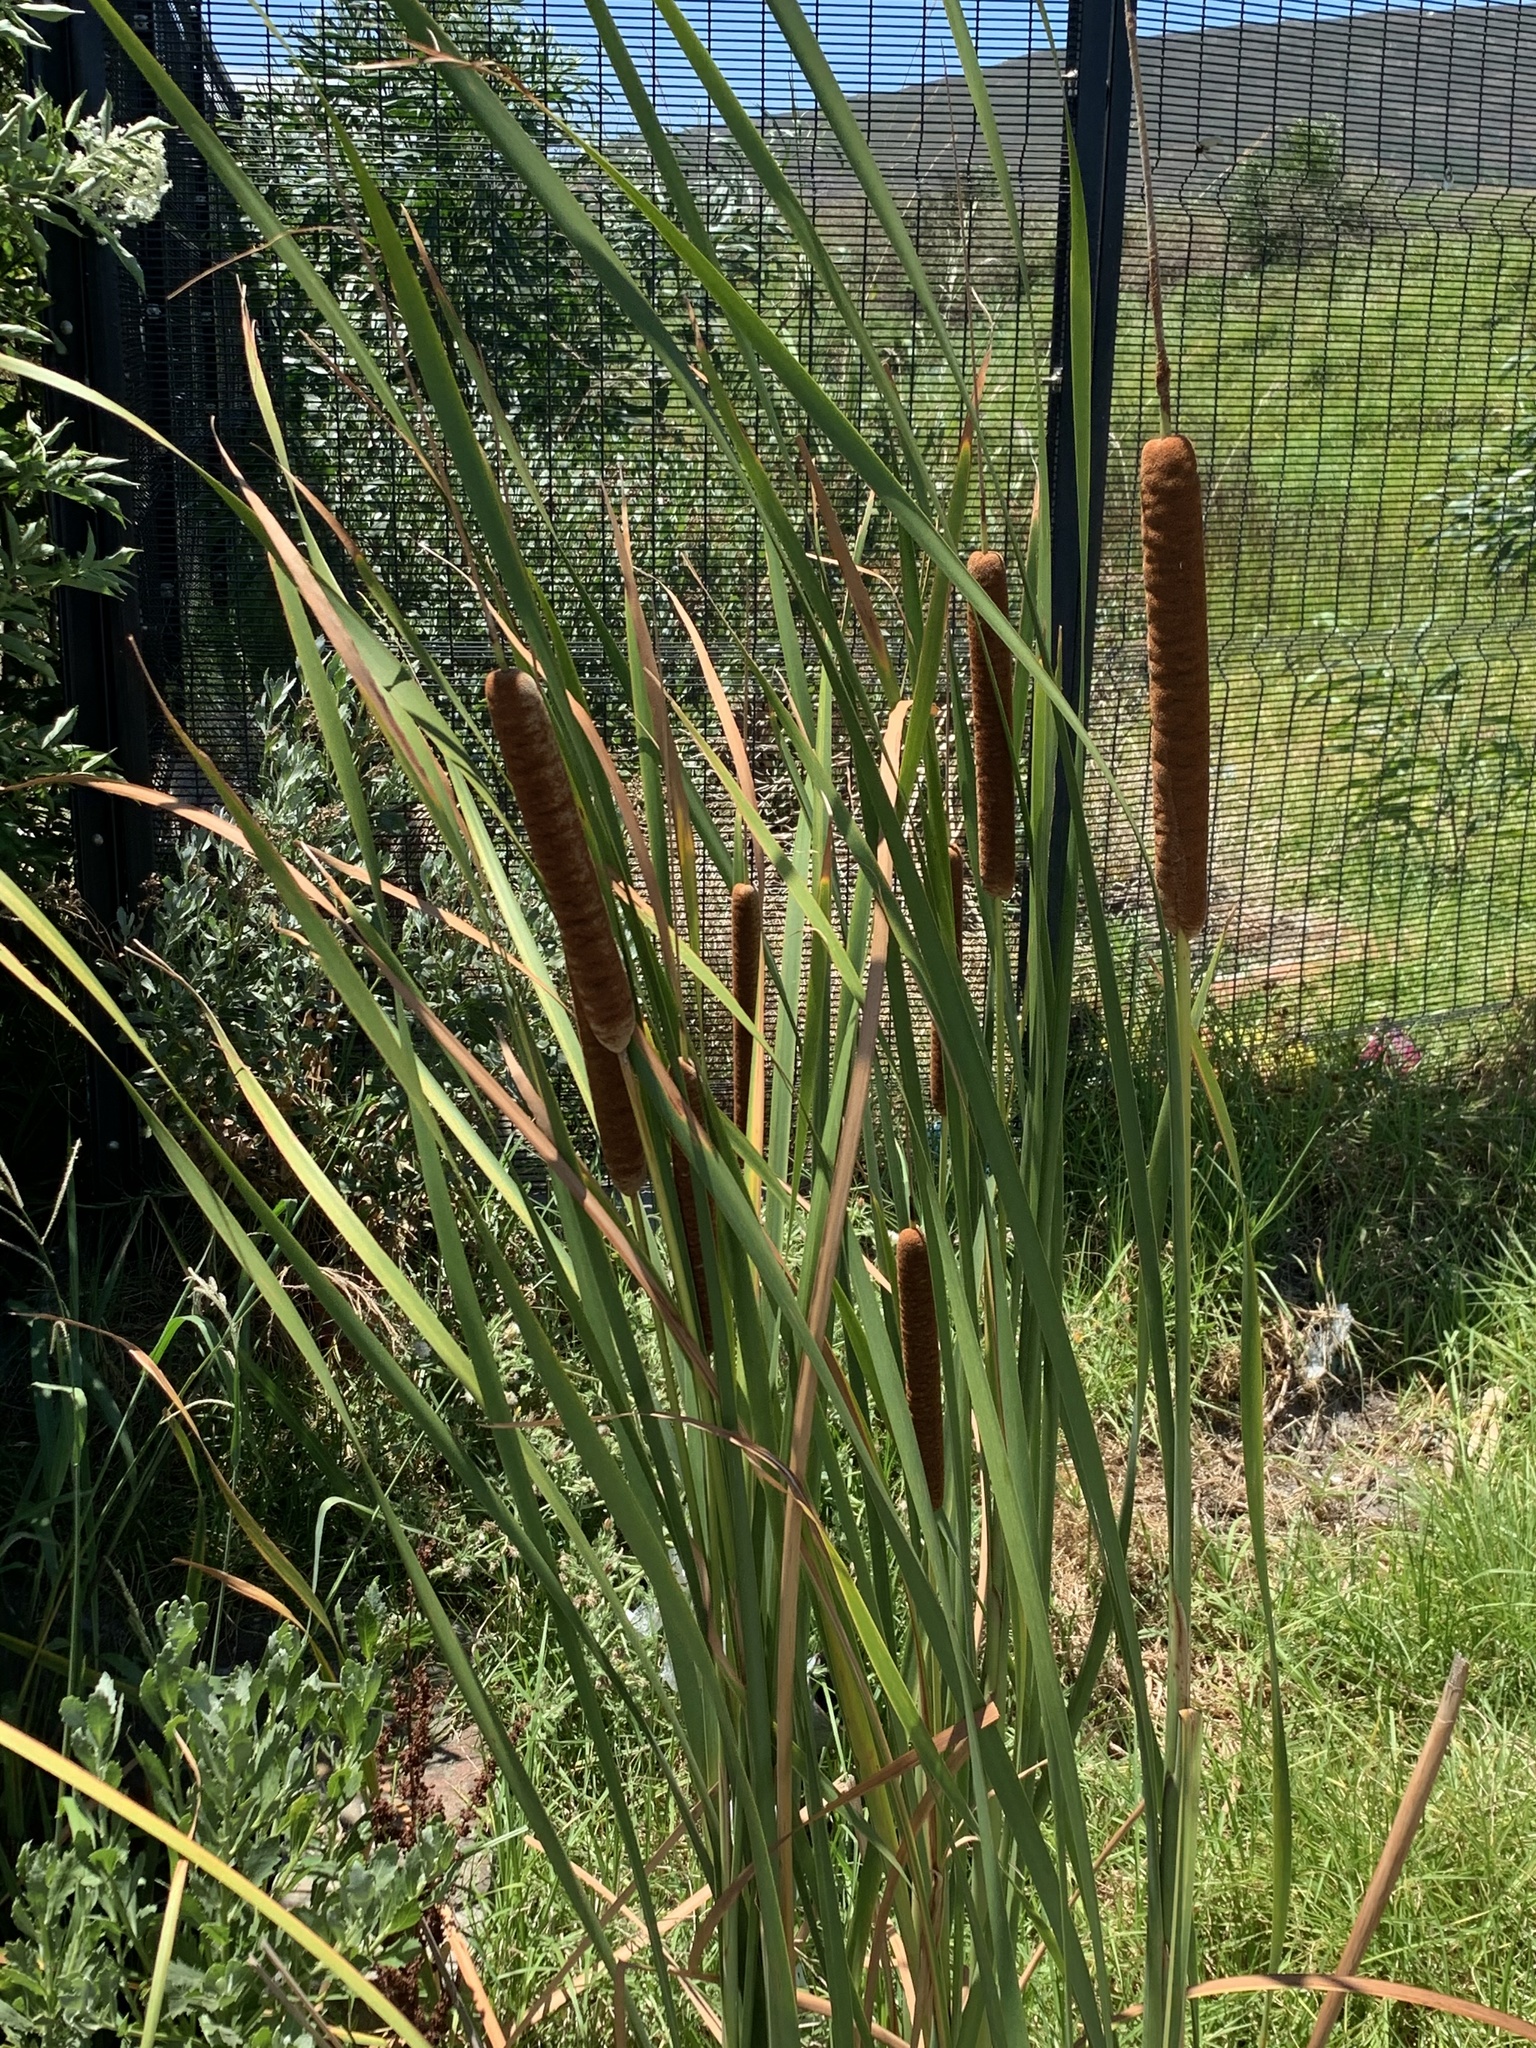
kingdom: Plantae
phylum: Tracheophyta
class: Liliopsida
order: Poales
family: Typhaceae
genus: Typha
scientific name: Typha capensis
